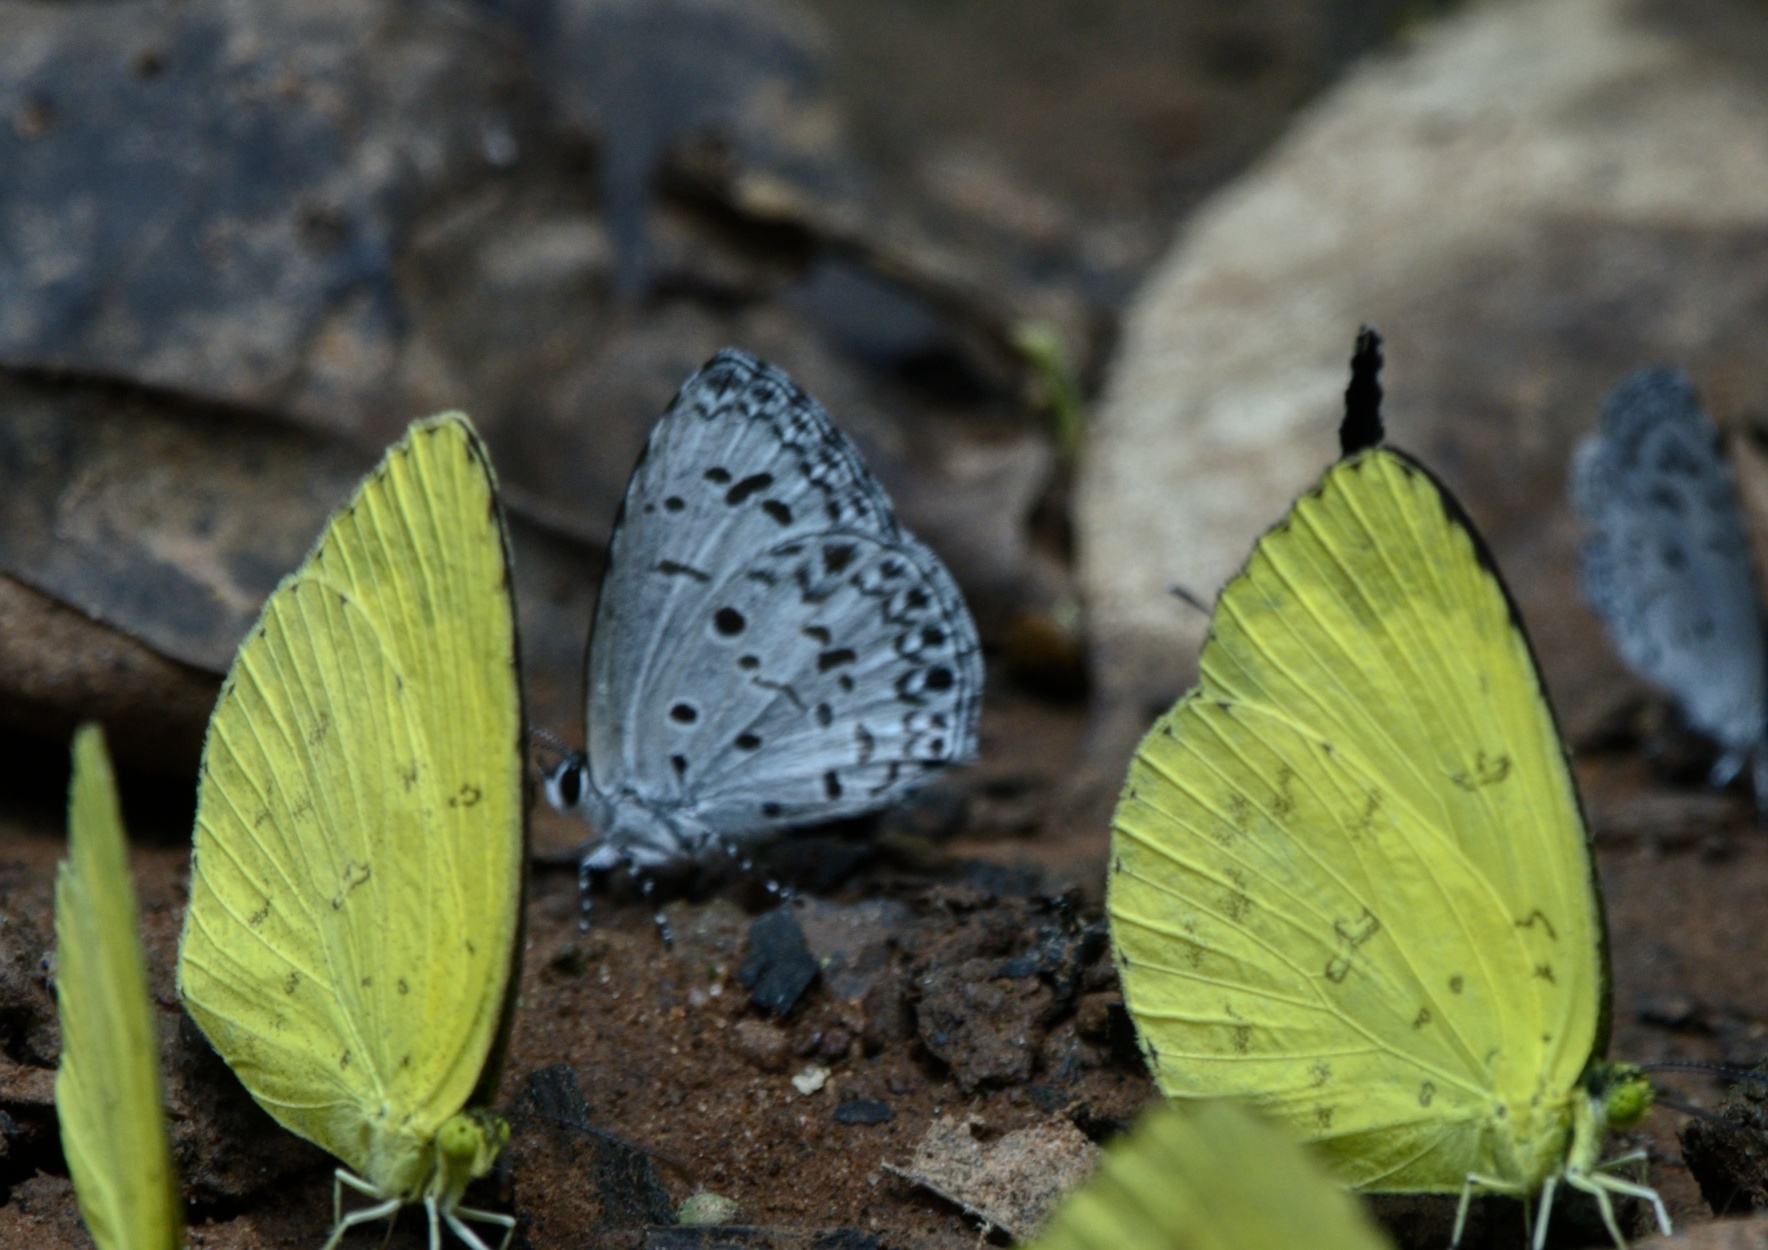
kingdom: Animalia
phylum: Arthropoda
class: Insecta
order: Lepidoptera
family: Lycaenidae
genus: Acytolepis
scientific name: Acytolepis puspa
